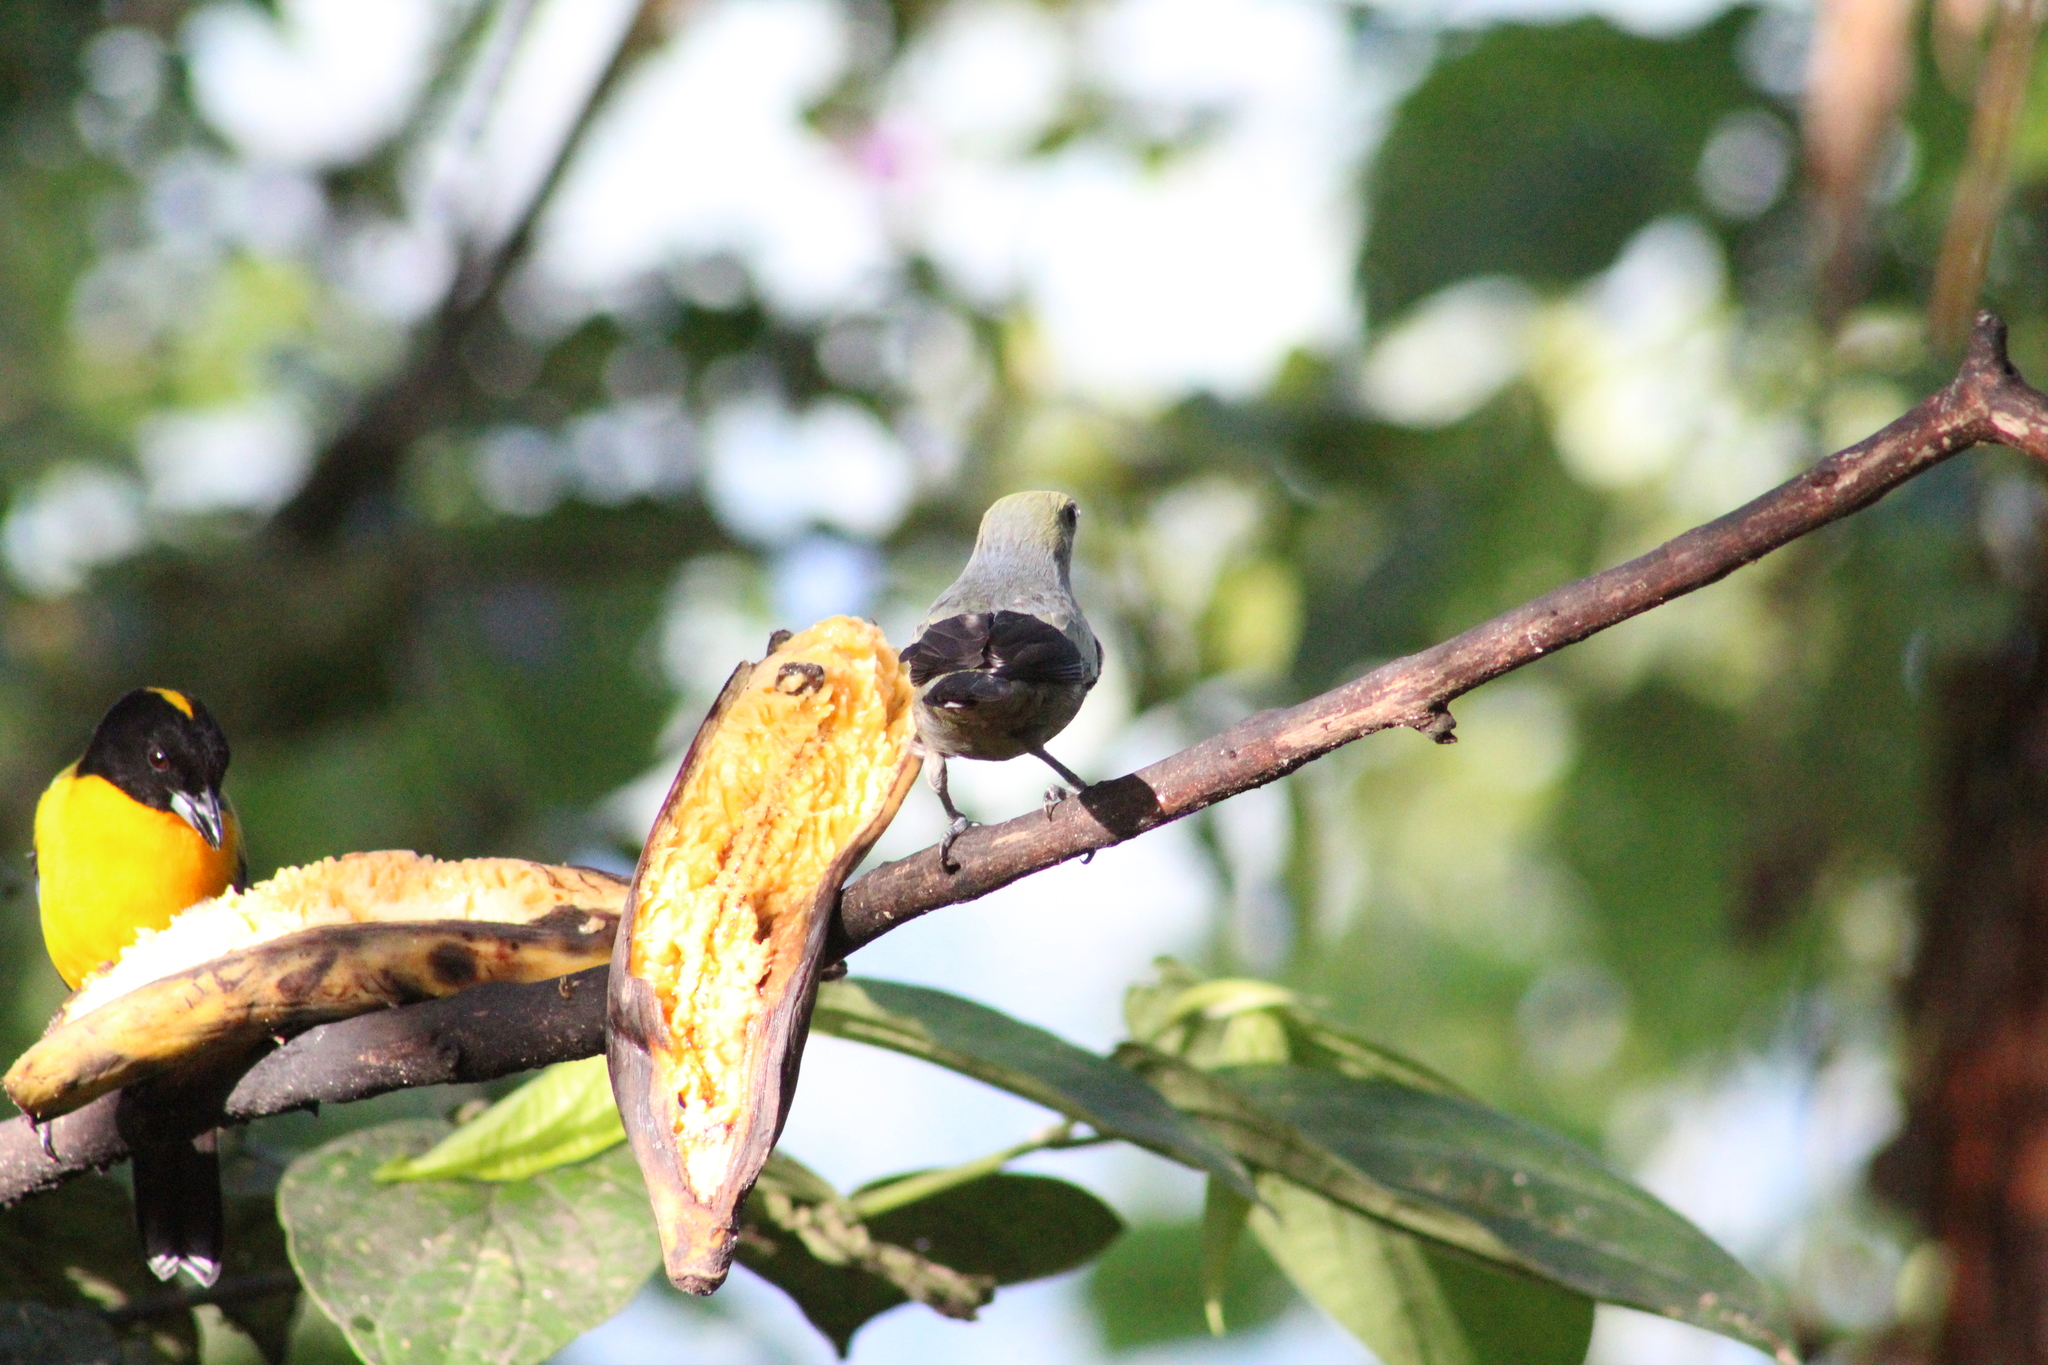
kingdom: Animalia
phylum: Chordata
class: Aves
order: Passeriformes
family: Thraupidae
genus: Thraupis
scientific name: Thraupis palmarum
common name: Palm tanager
